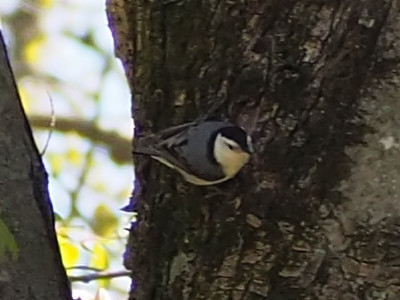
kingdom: Animalia
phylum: Chordata
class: Aves
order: Passeriformes
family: Sittidae
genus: Sitta
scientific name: Sitta carolinensis
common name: White-breasted nuthatch
